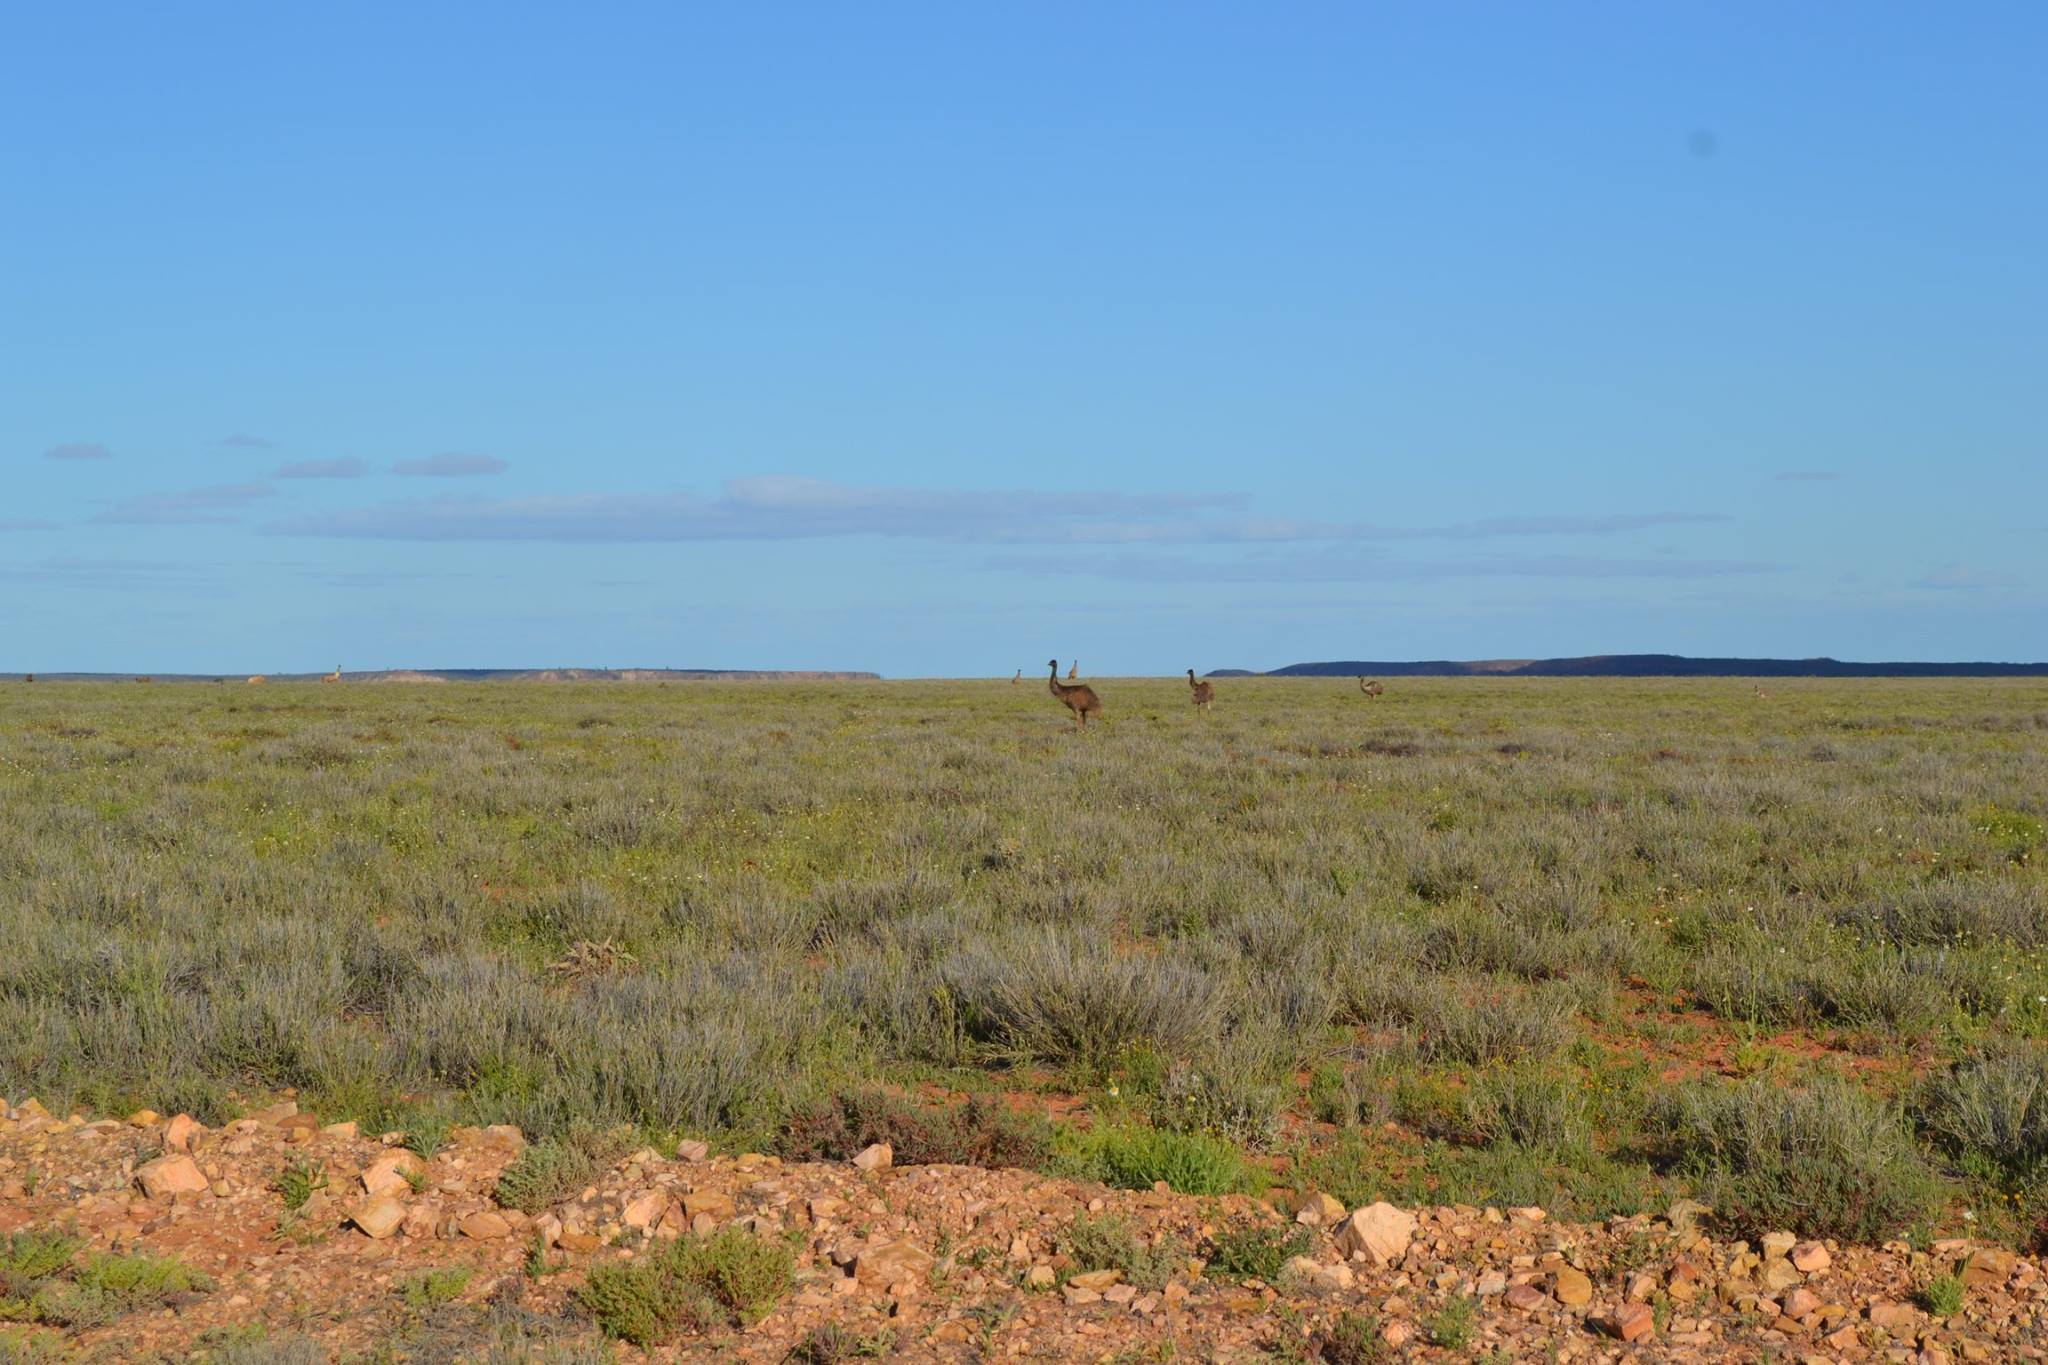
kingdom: Animalia
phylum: Chordata
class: Aves
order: Casuariiformes
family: Dromaiidae
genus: Dromaius
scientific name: Dromaius novaehollandiae
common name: Emu
